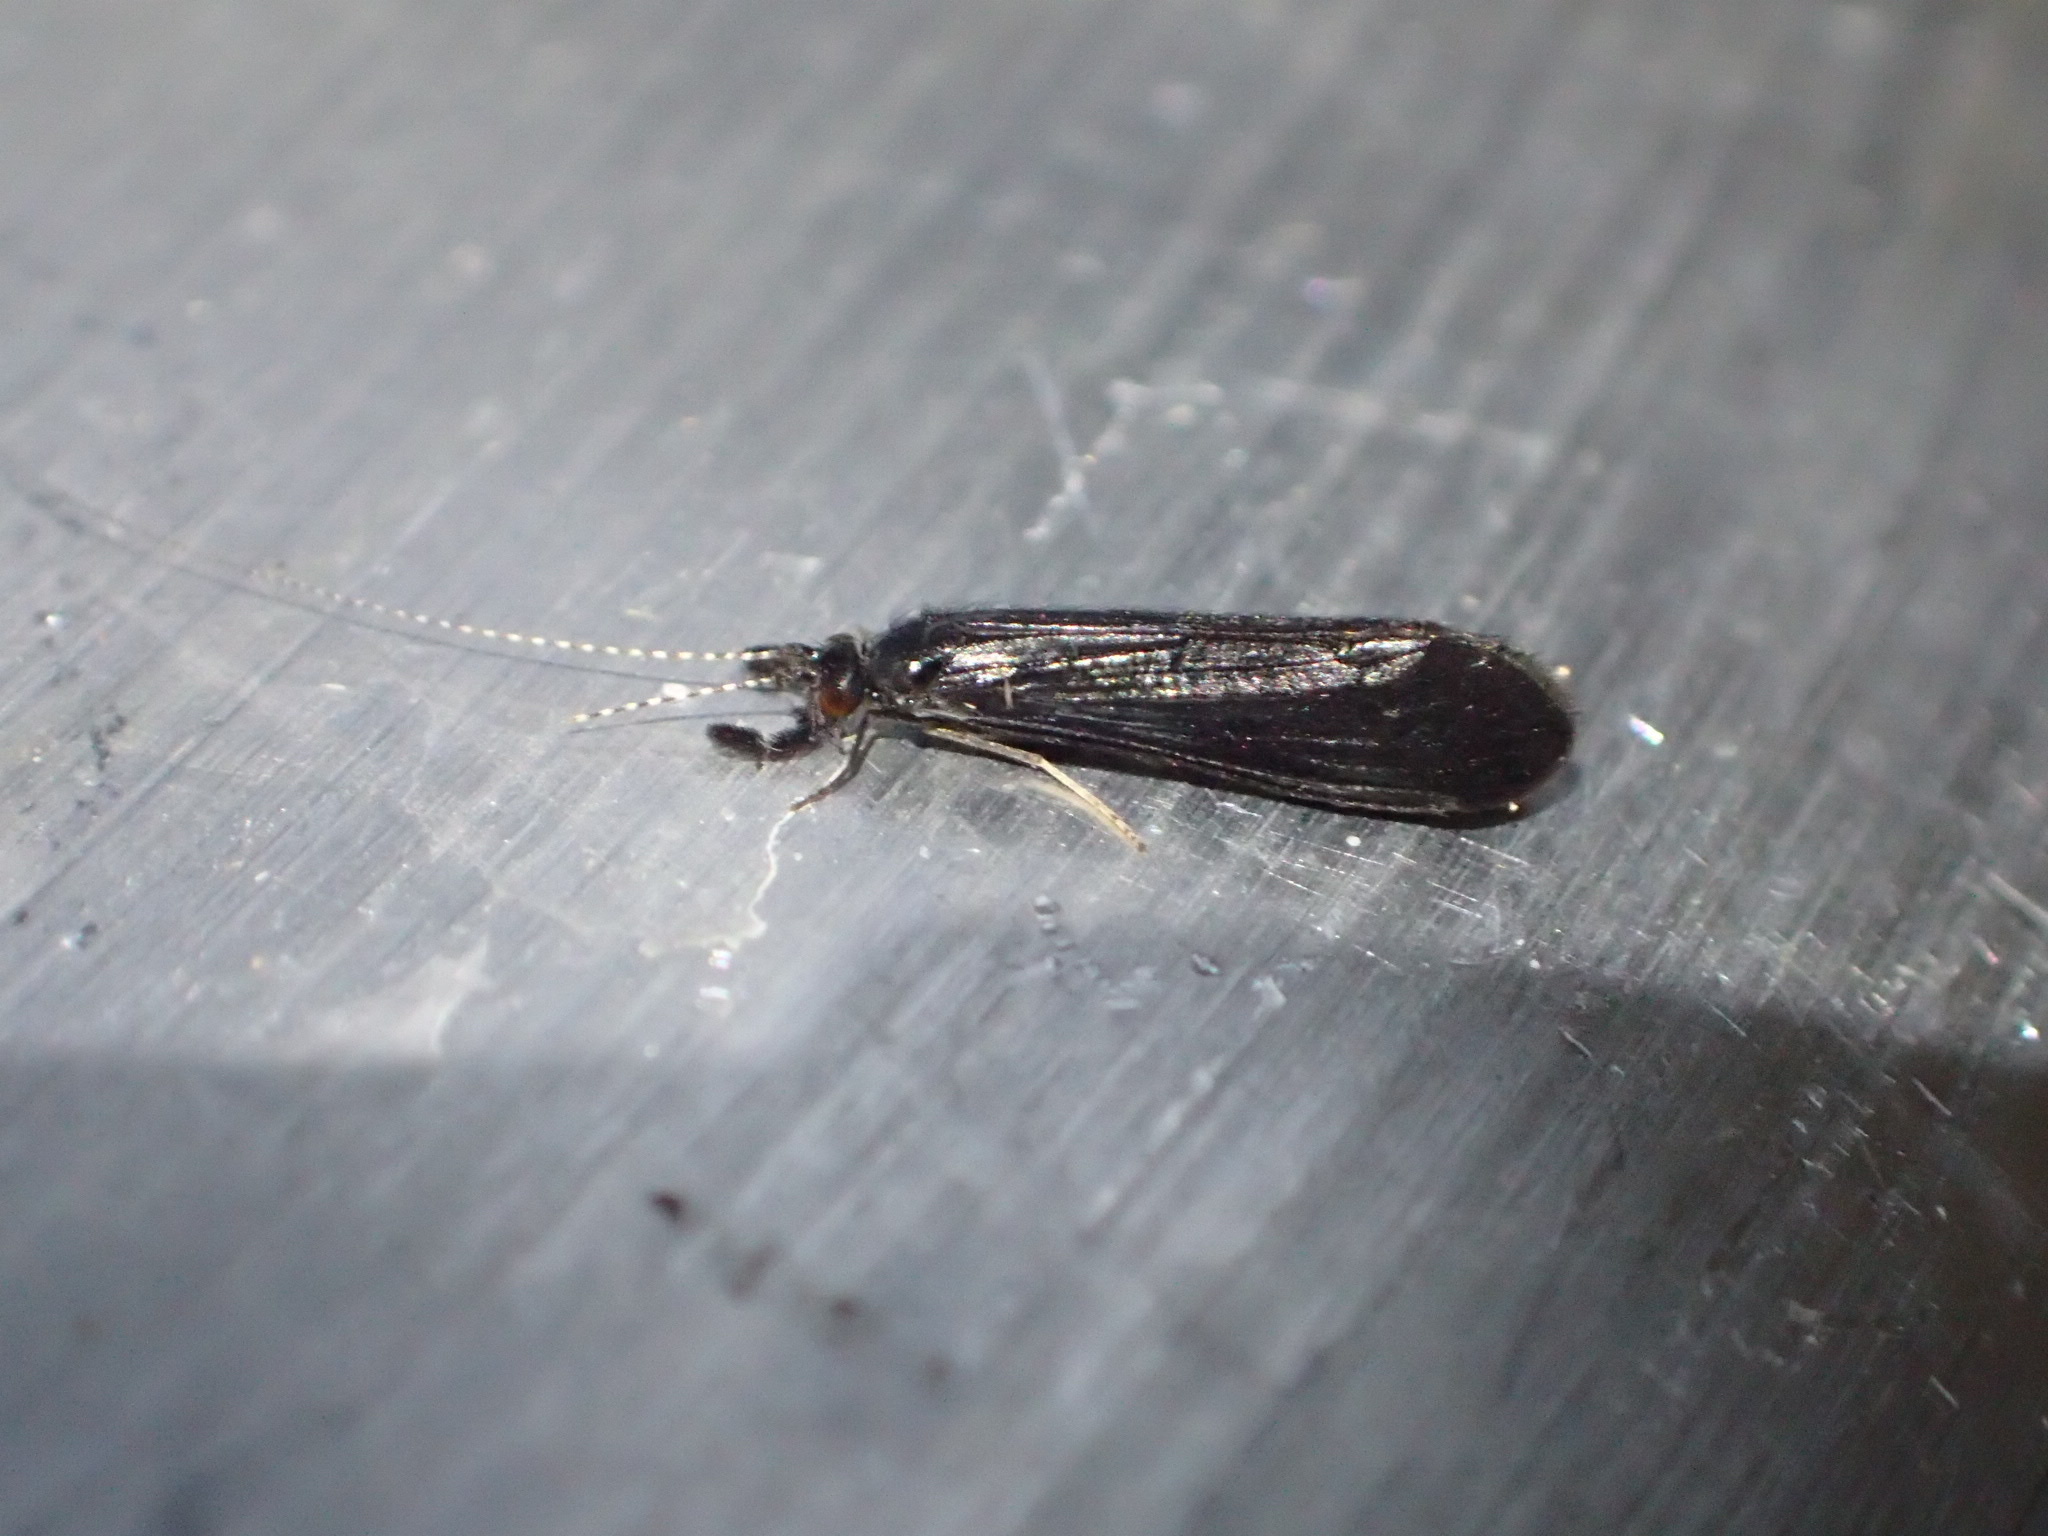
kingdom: Animalia
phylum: Arthropoda
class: Insecta
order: Trichoptera
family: Leptoceridae
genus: Mystacides
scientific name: Mystacides sepulchralis
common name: Black dancer caddisfly
